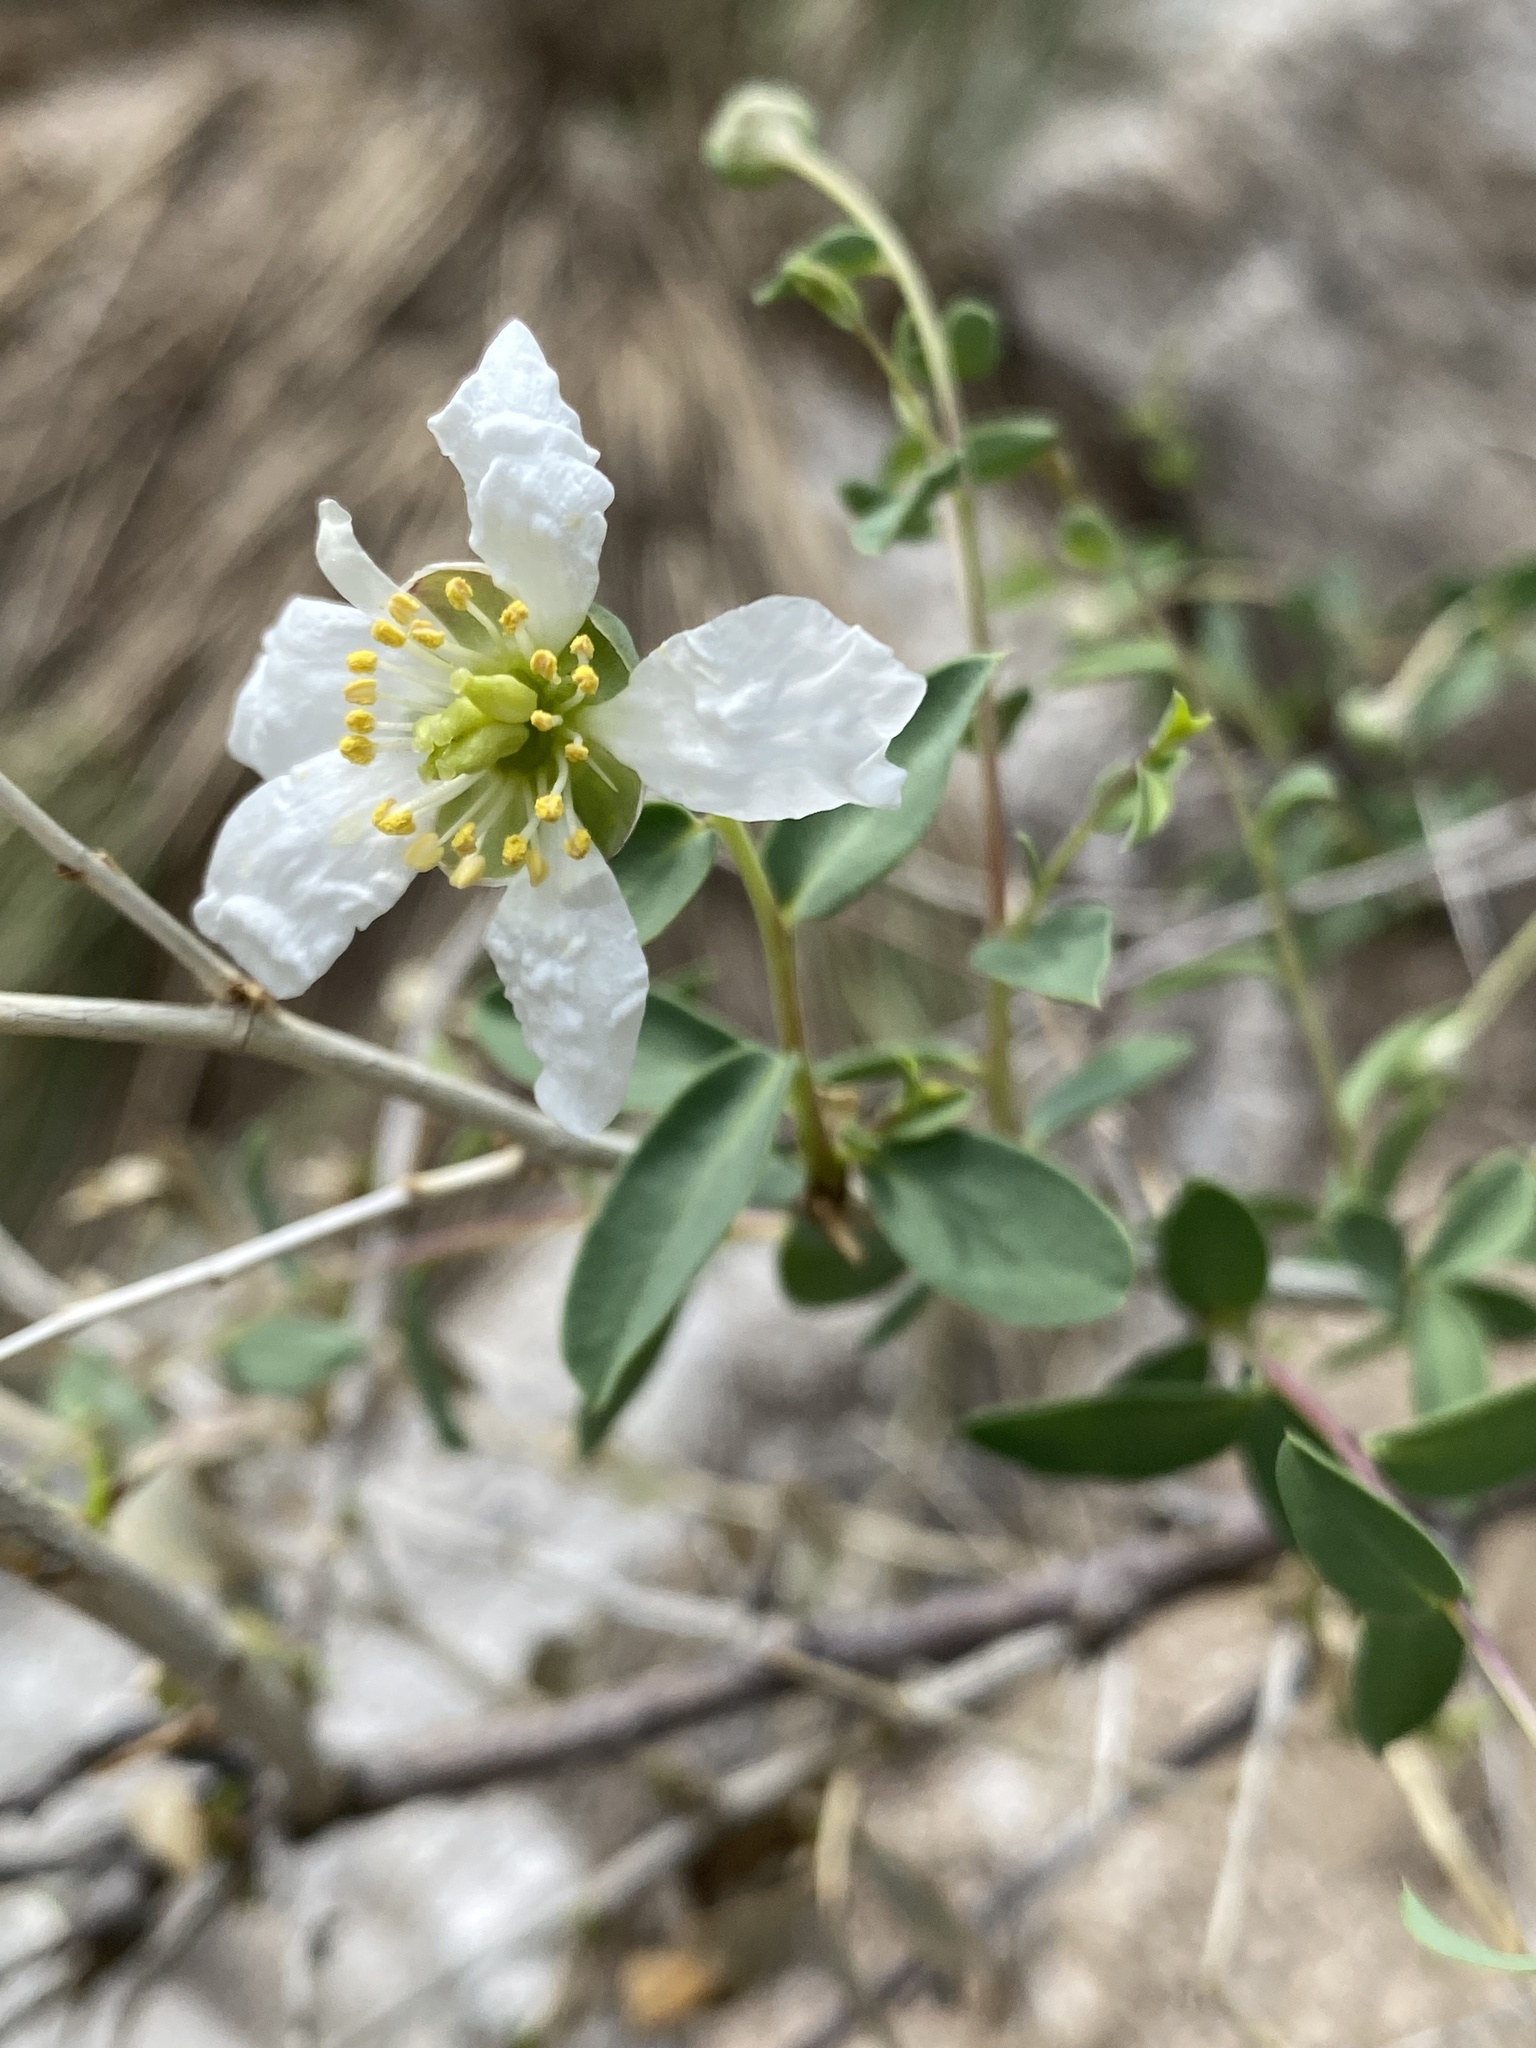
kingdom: Plantae
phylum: Tracheophyta
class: Magnoliopsida
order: Crossosomatales
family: Crossosomataceae
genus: Crossosoma
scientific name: Crossosoma bigelovii
